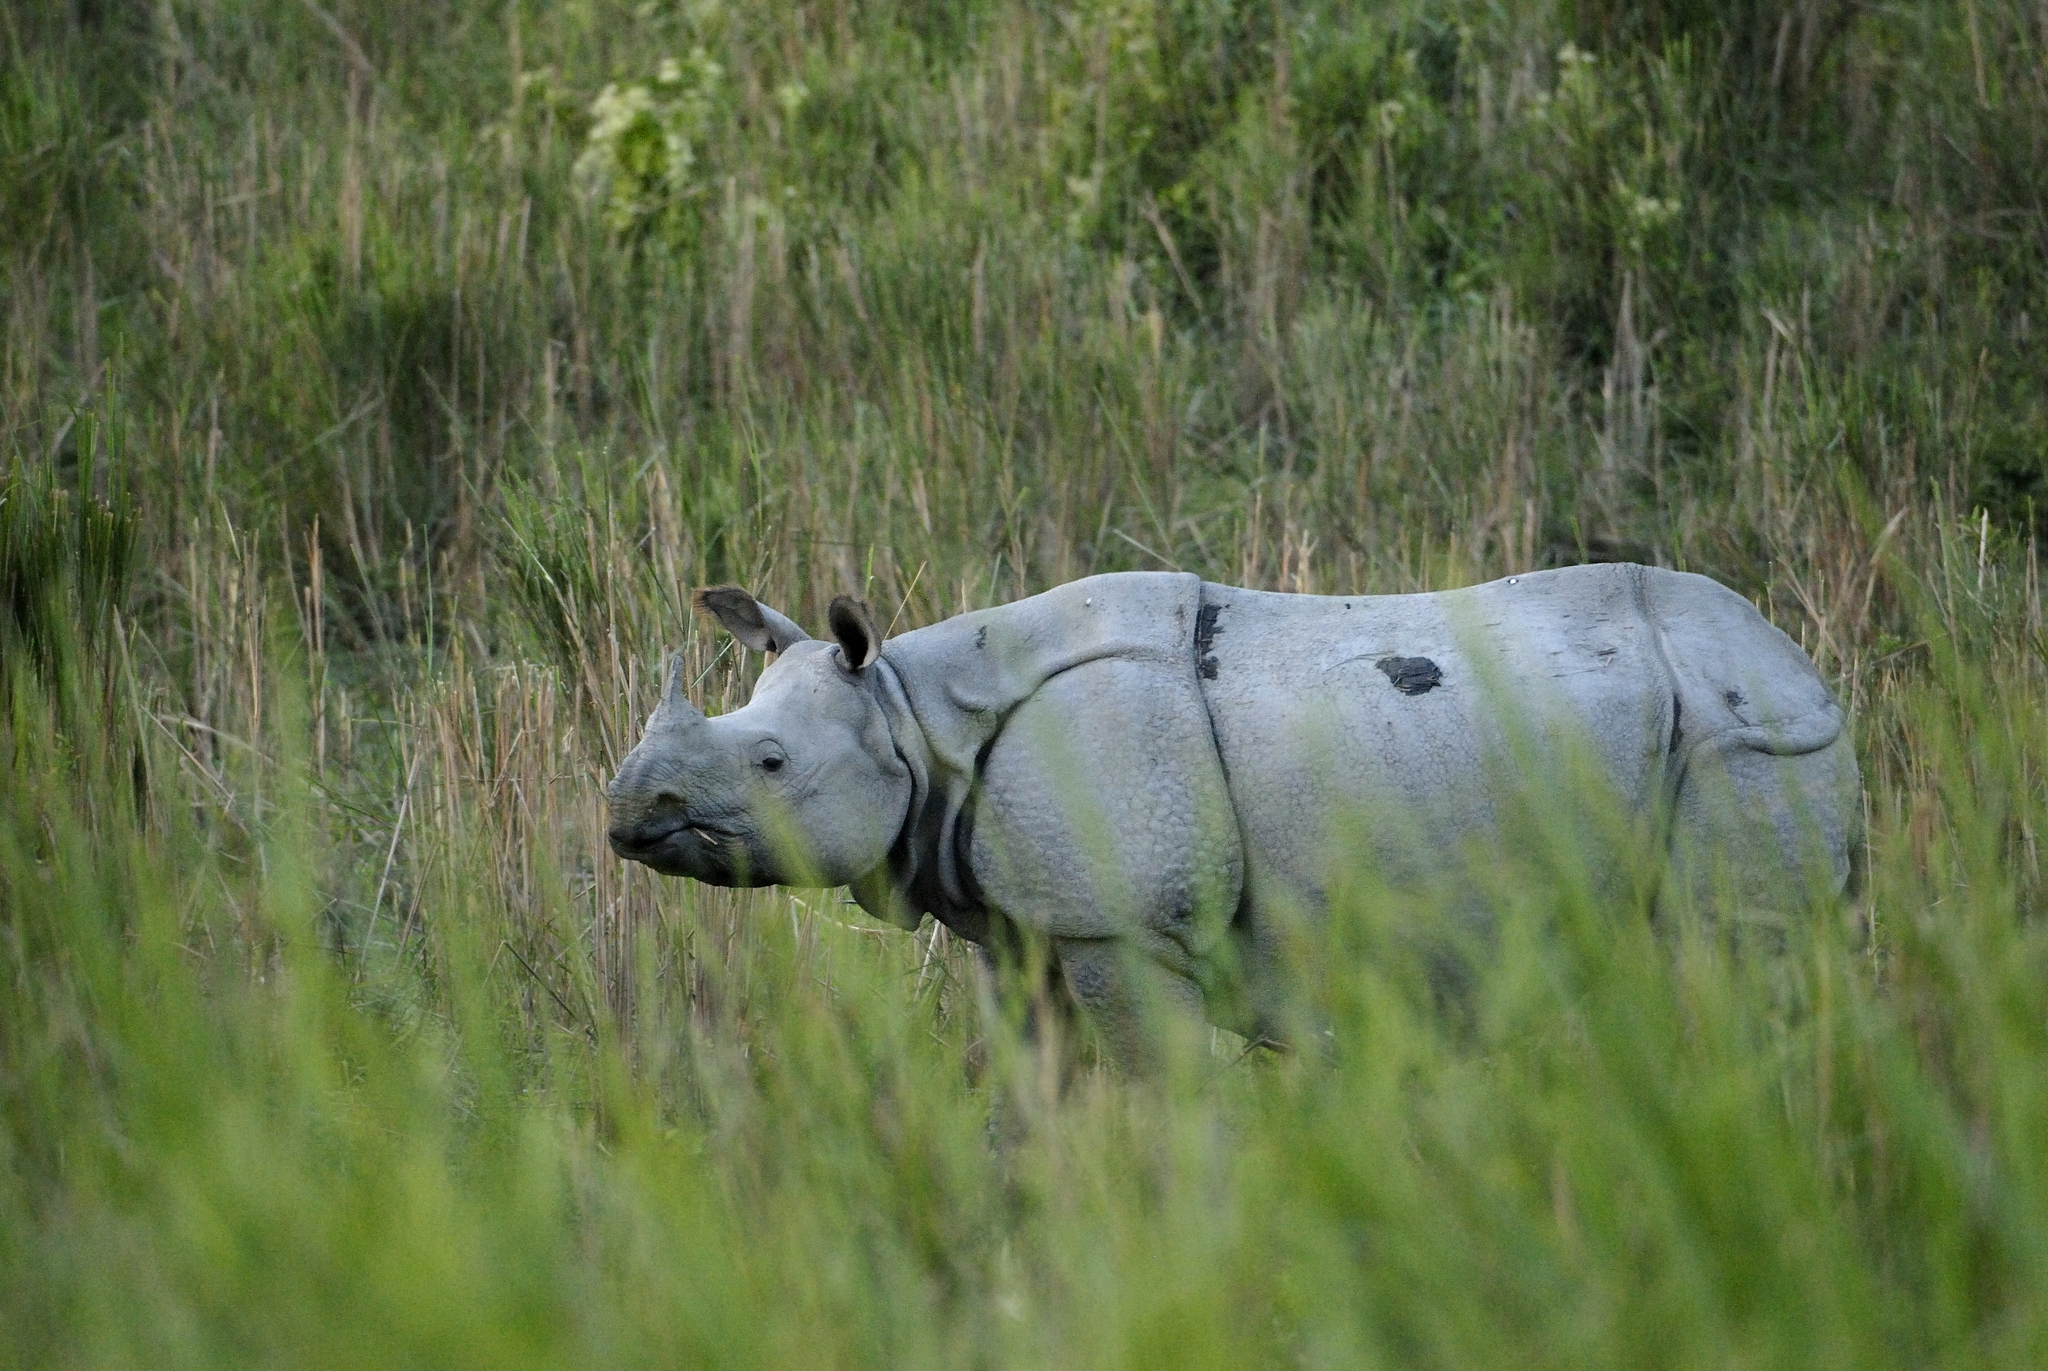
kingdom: Animalia
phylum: Chordata
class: Mammalia
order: Perissodactyla
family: Rhinocerotidae
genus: Rhinoceros
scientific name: Rhinoceros unicornis
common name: Indian rhinoceros
